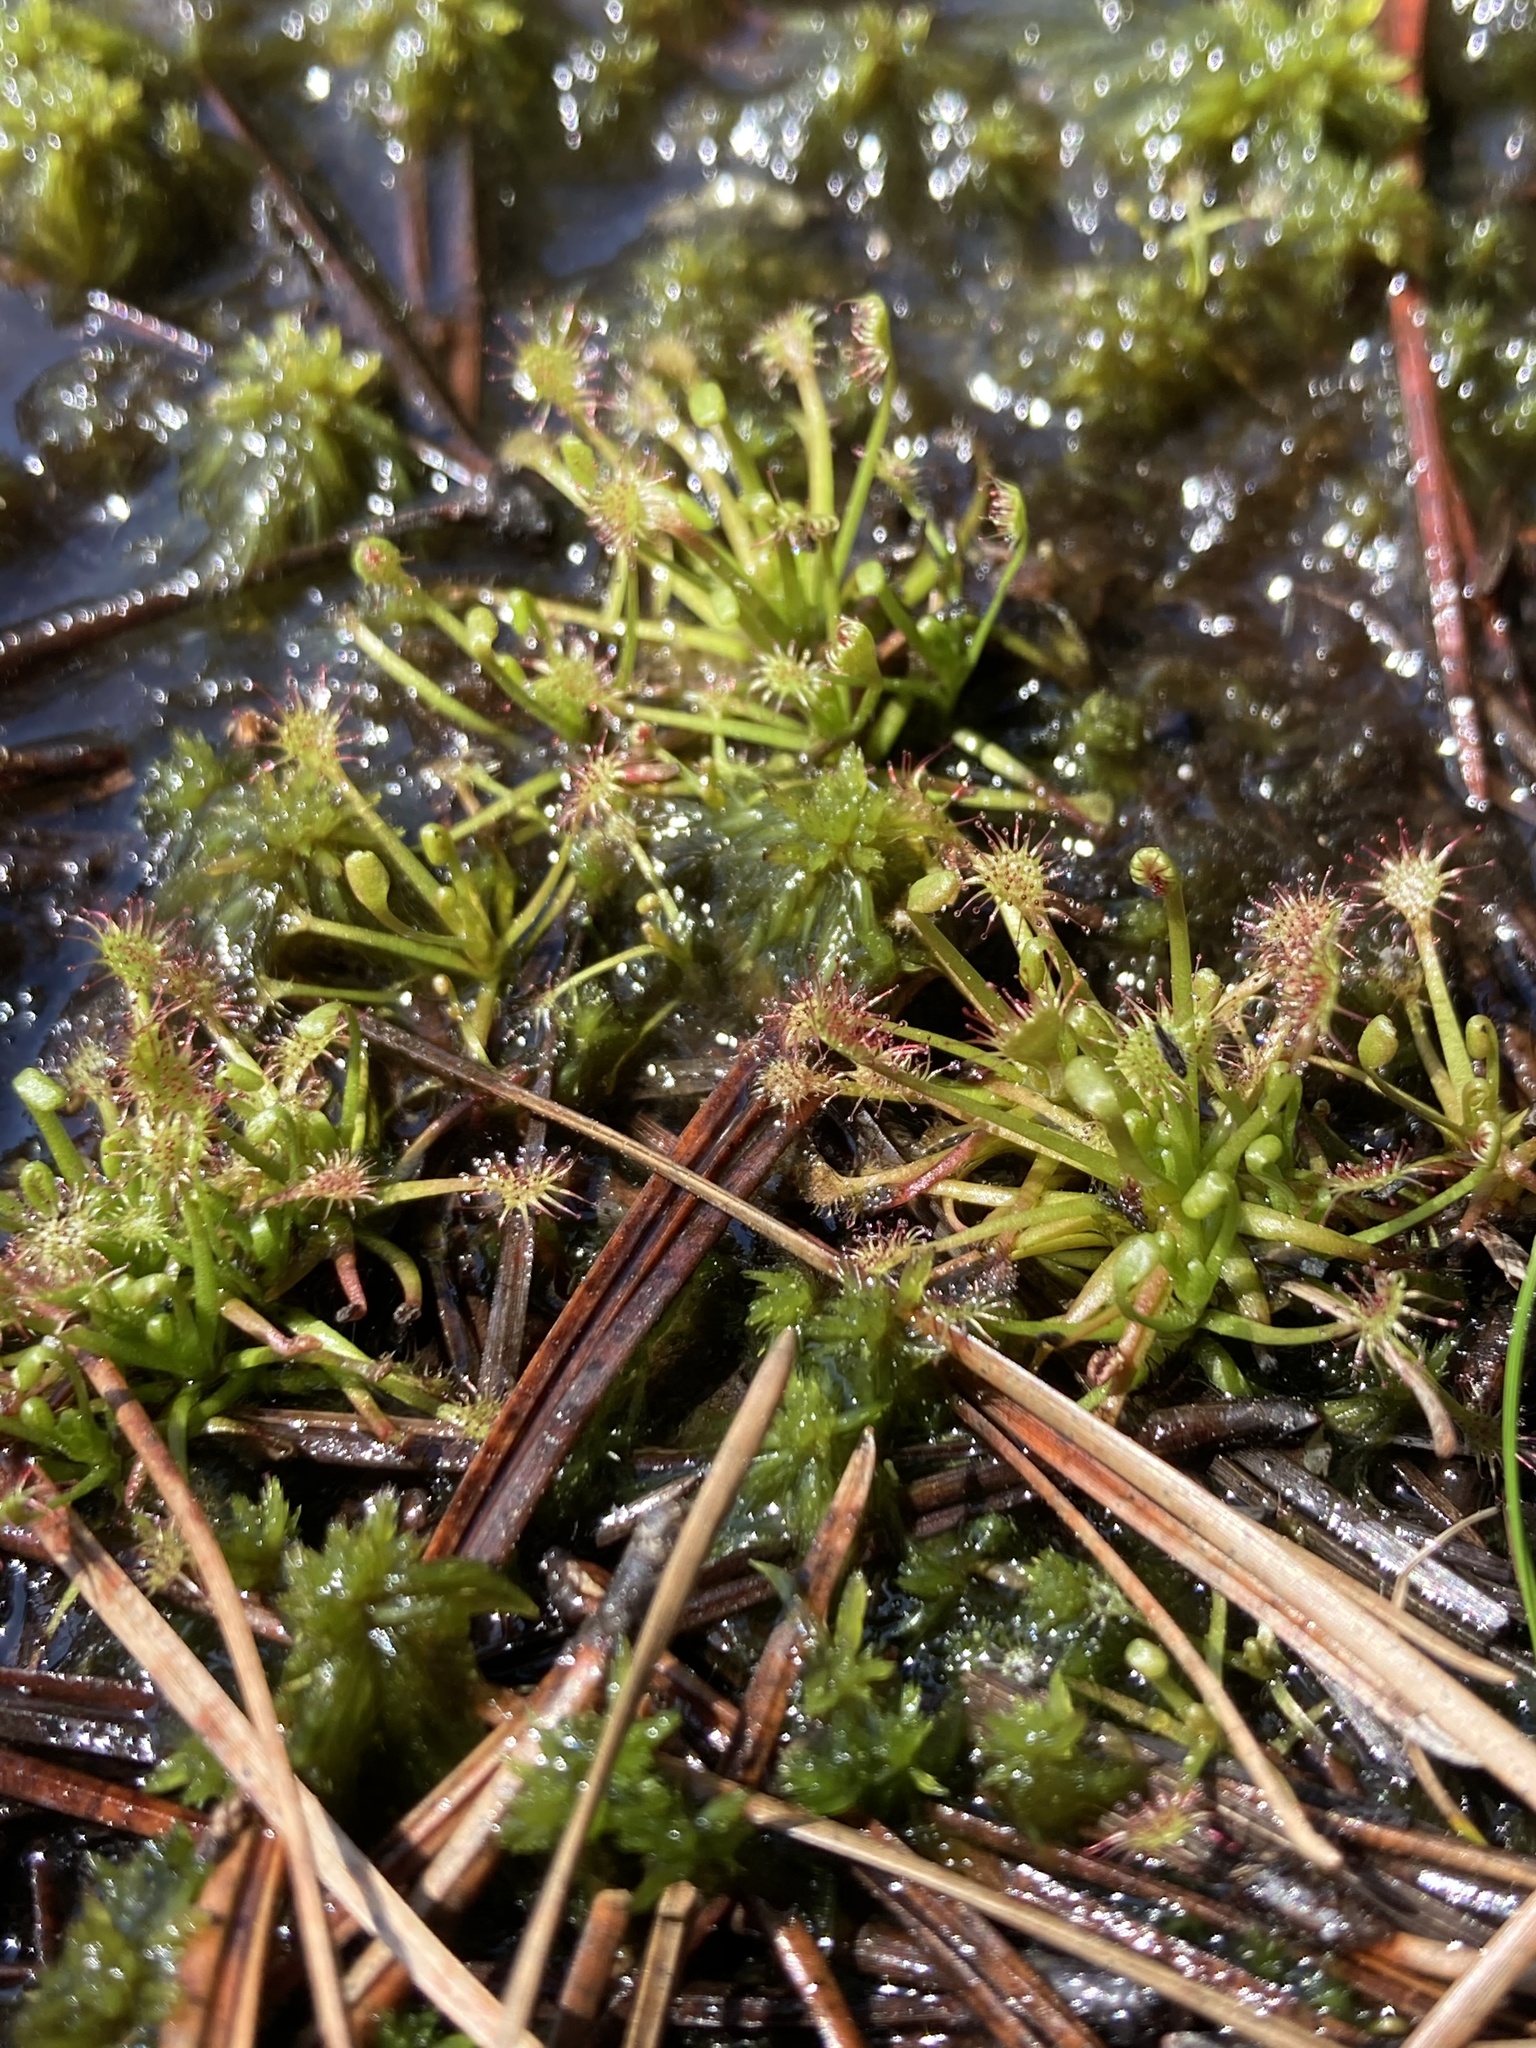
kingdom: Plantae
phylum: Tracheophyta
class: Magnoliopsida
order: Caryophyllales
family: Droseraceae
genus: Drosera
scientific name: Drosera intermedia
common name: Oblong-leaved sundew
